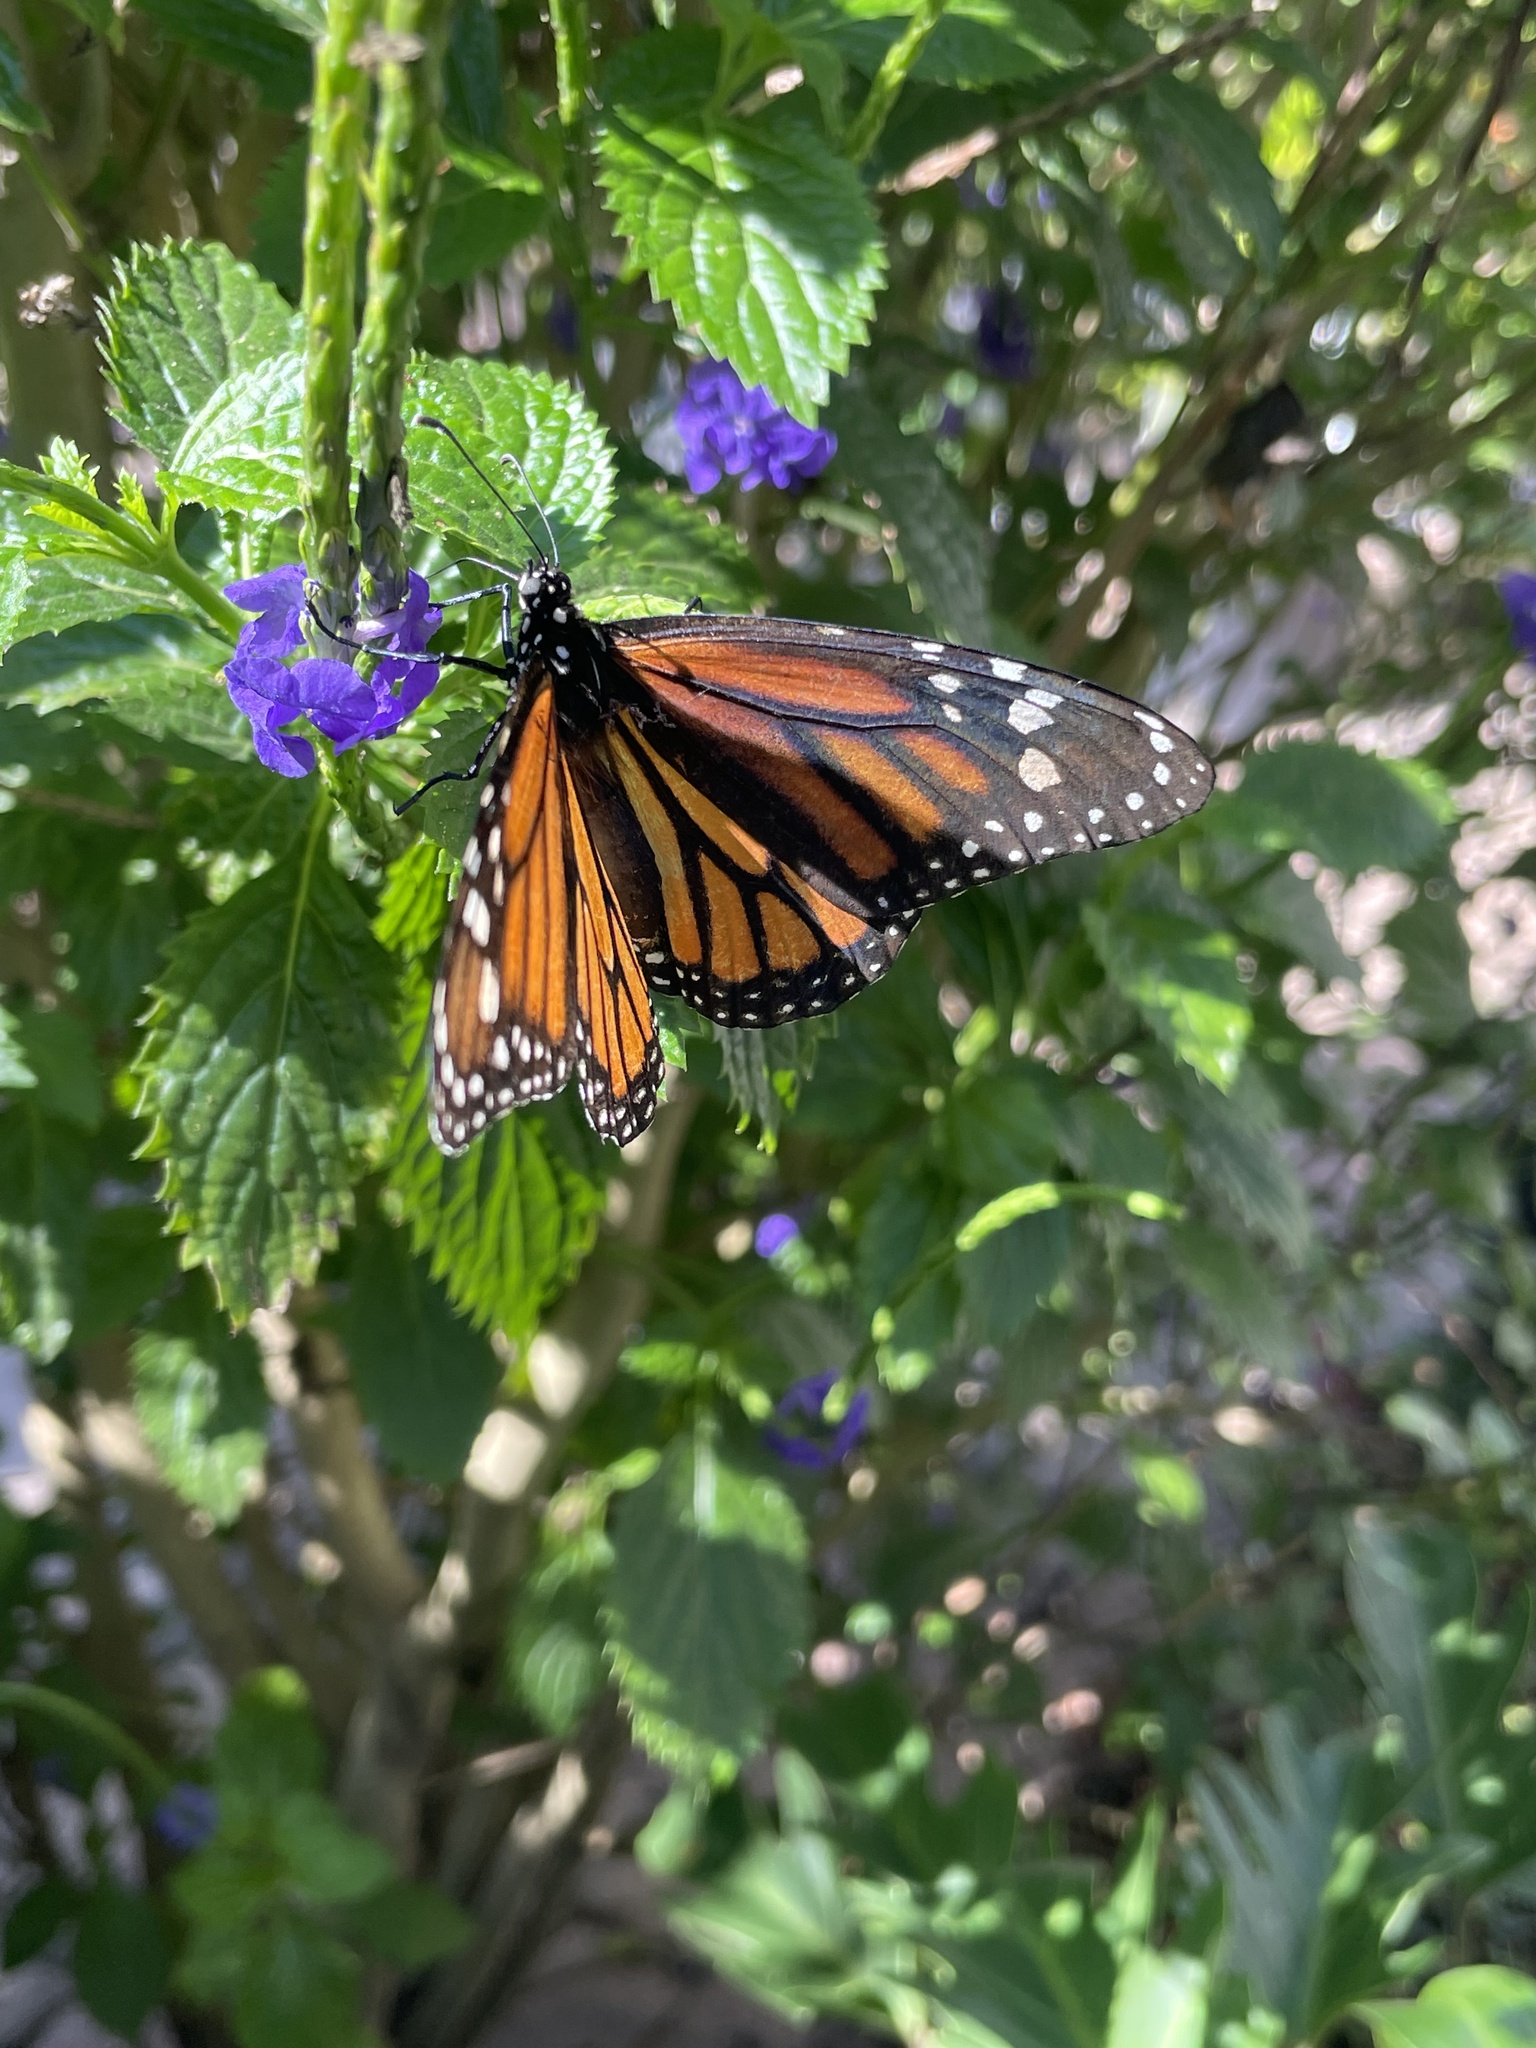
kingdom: Animalia
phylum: Arthropoda
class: Insecta
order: Lepidoptera
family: Nymphalidae
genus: Danaus
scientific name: Danaus plexippus
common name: Monarch
